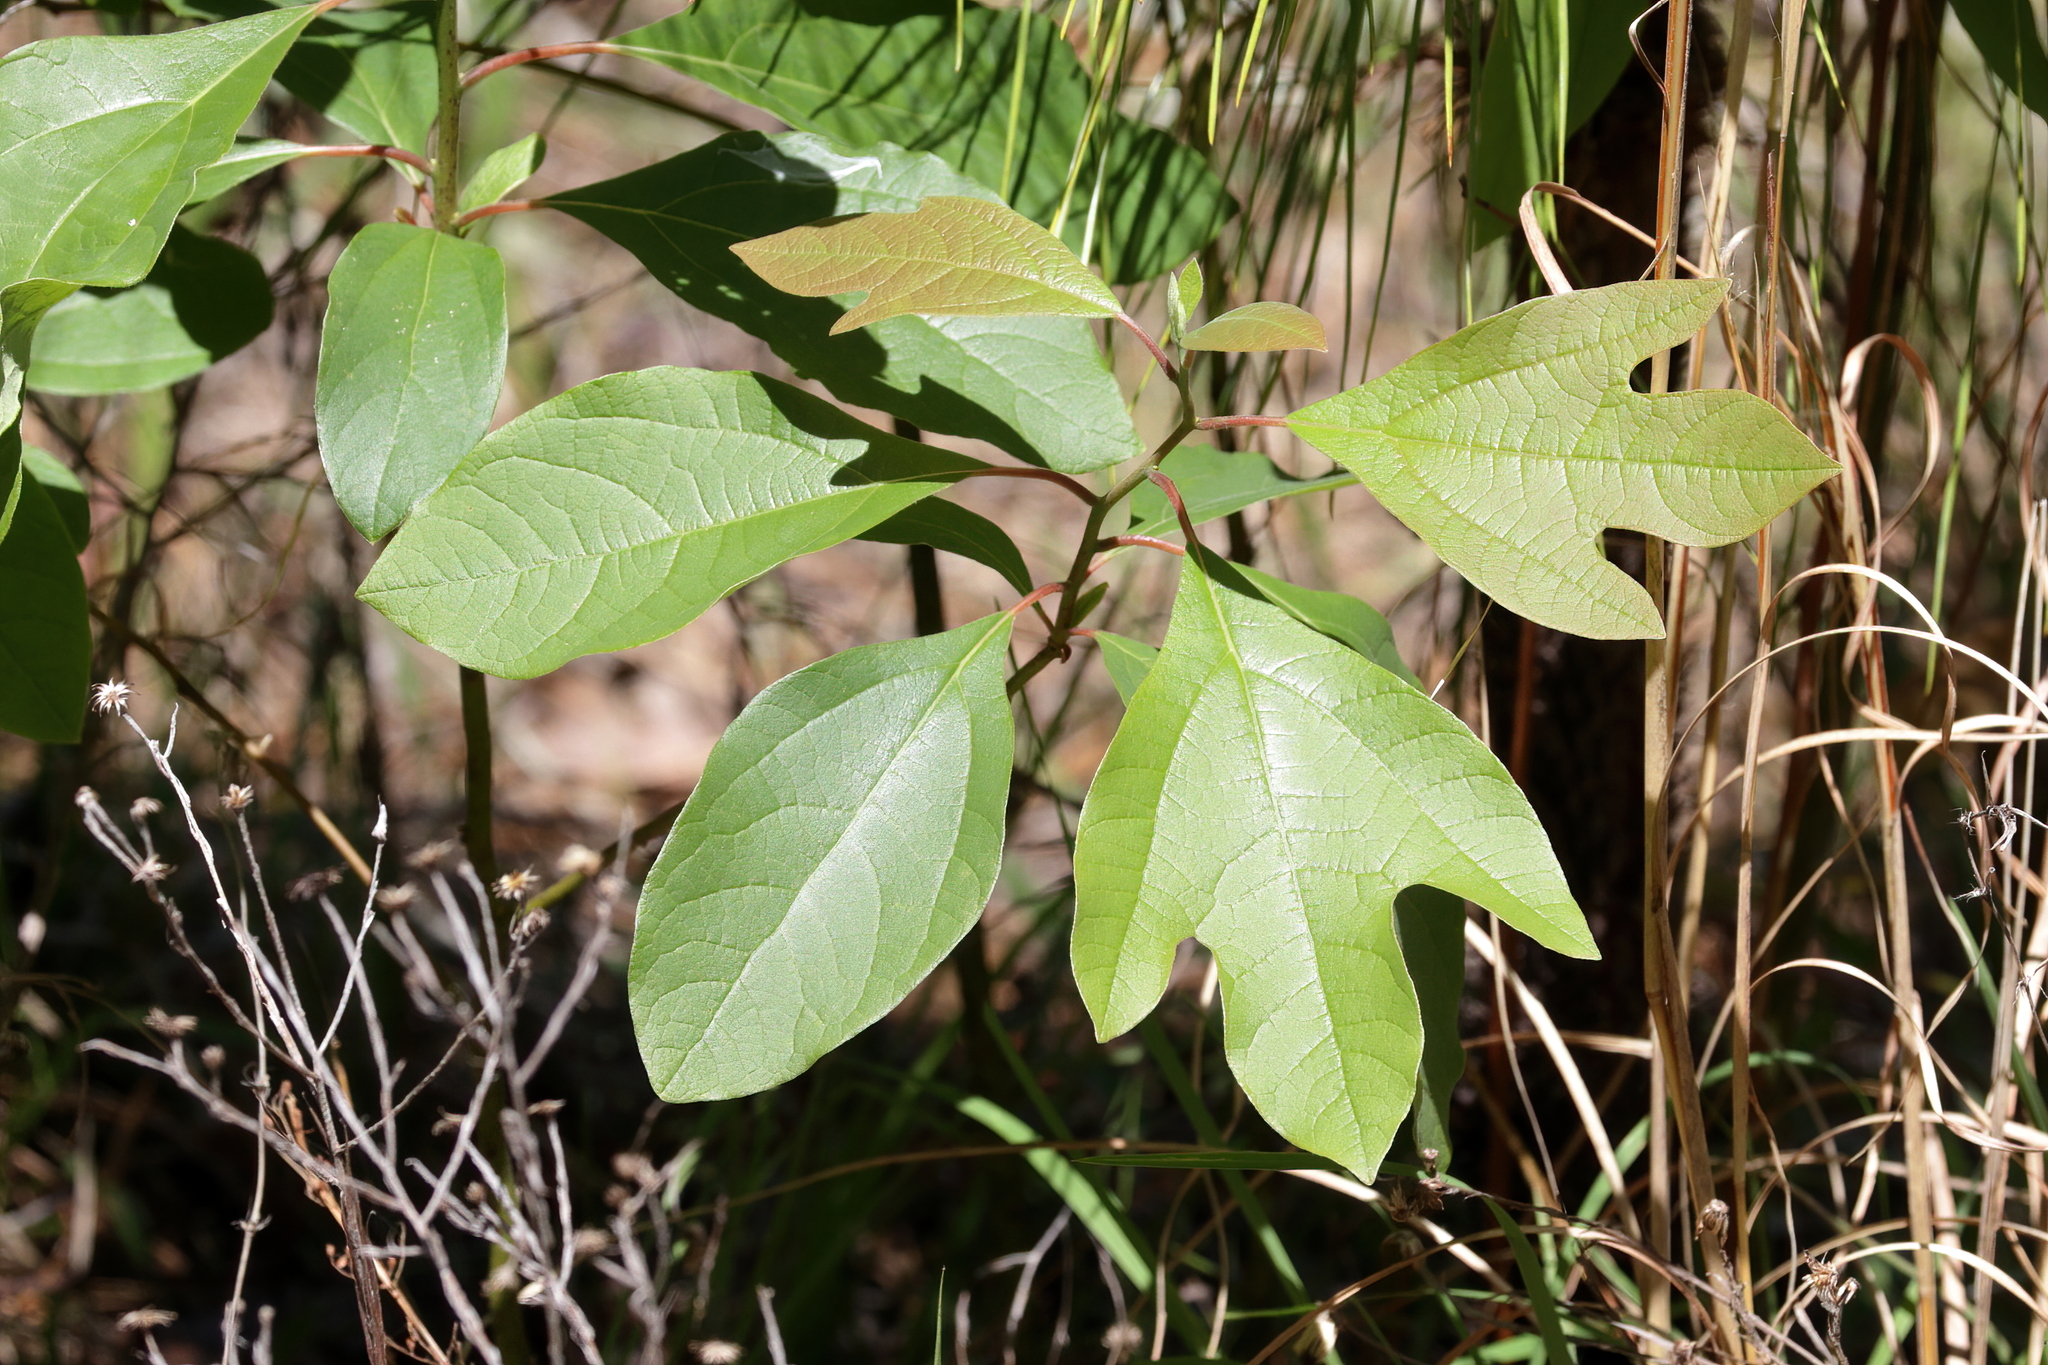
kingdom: Plantae
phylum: Tracheophyta
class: Magnoliopsida
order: Laurales
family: Lauraceae
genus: Sassafras
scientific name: Sassafras albidum
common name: Sassafras
